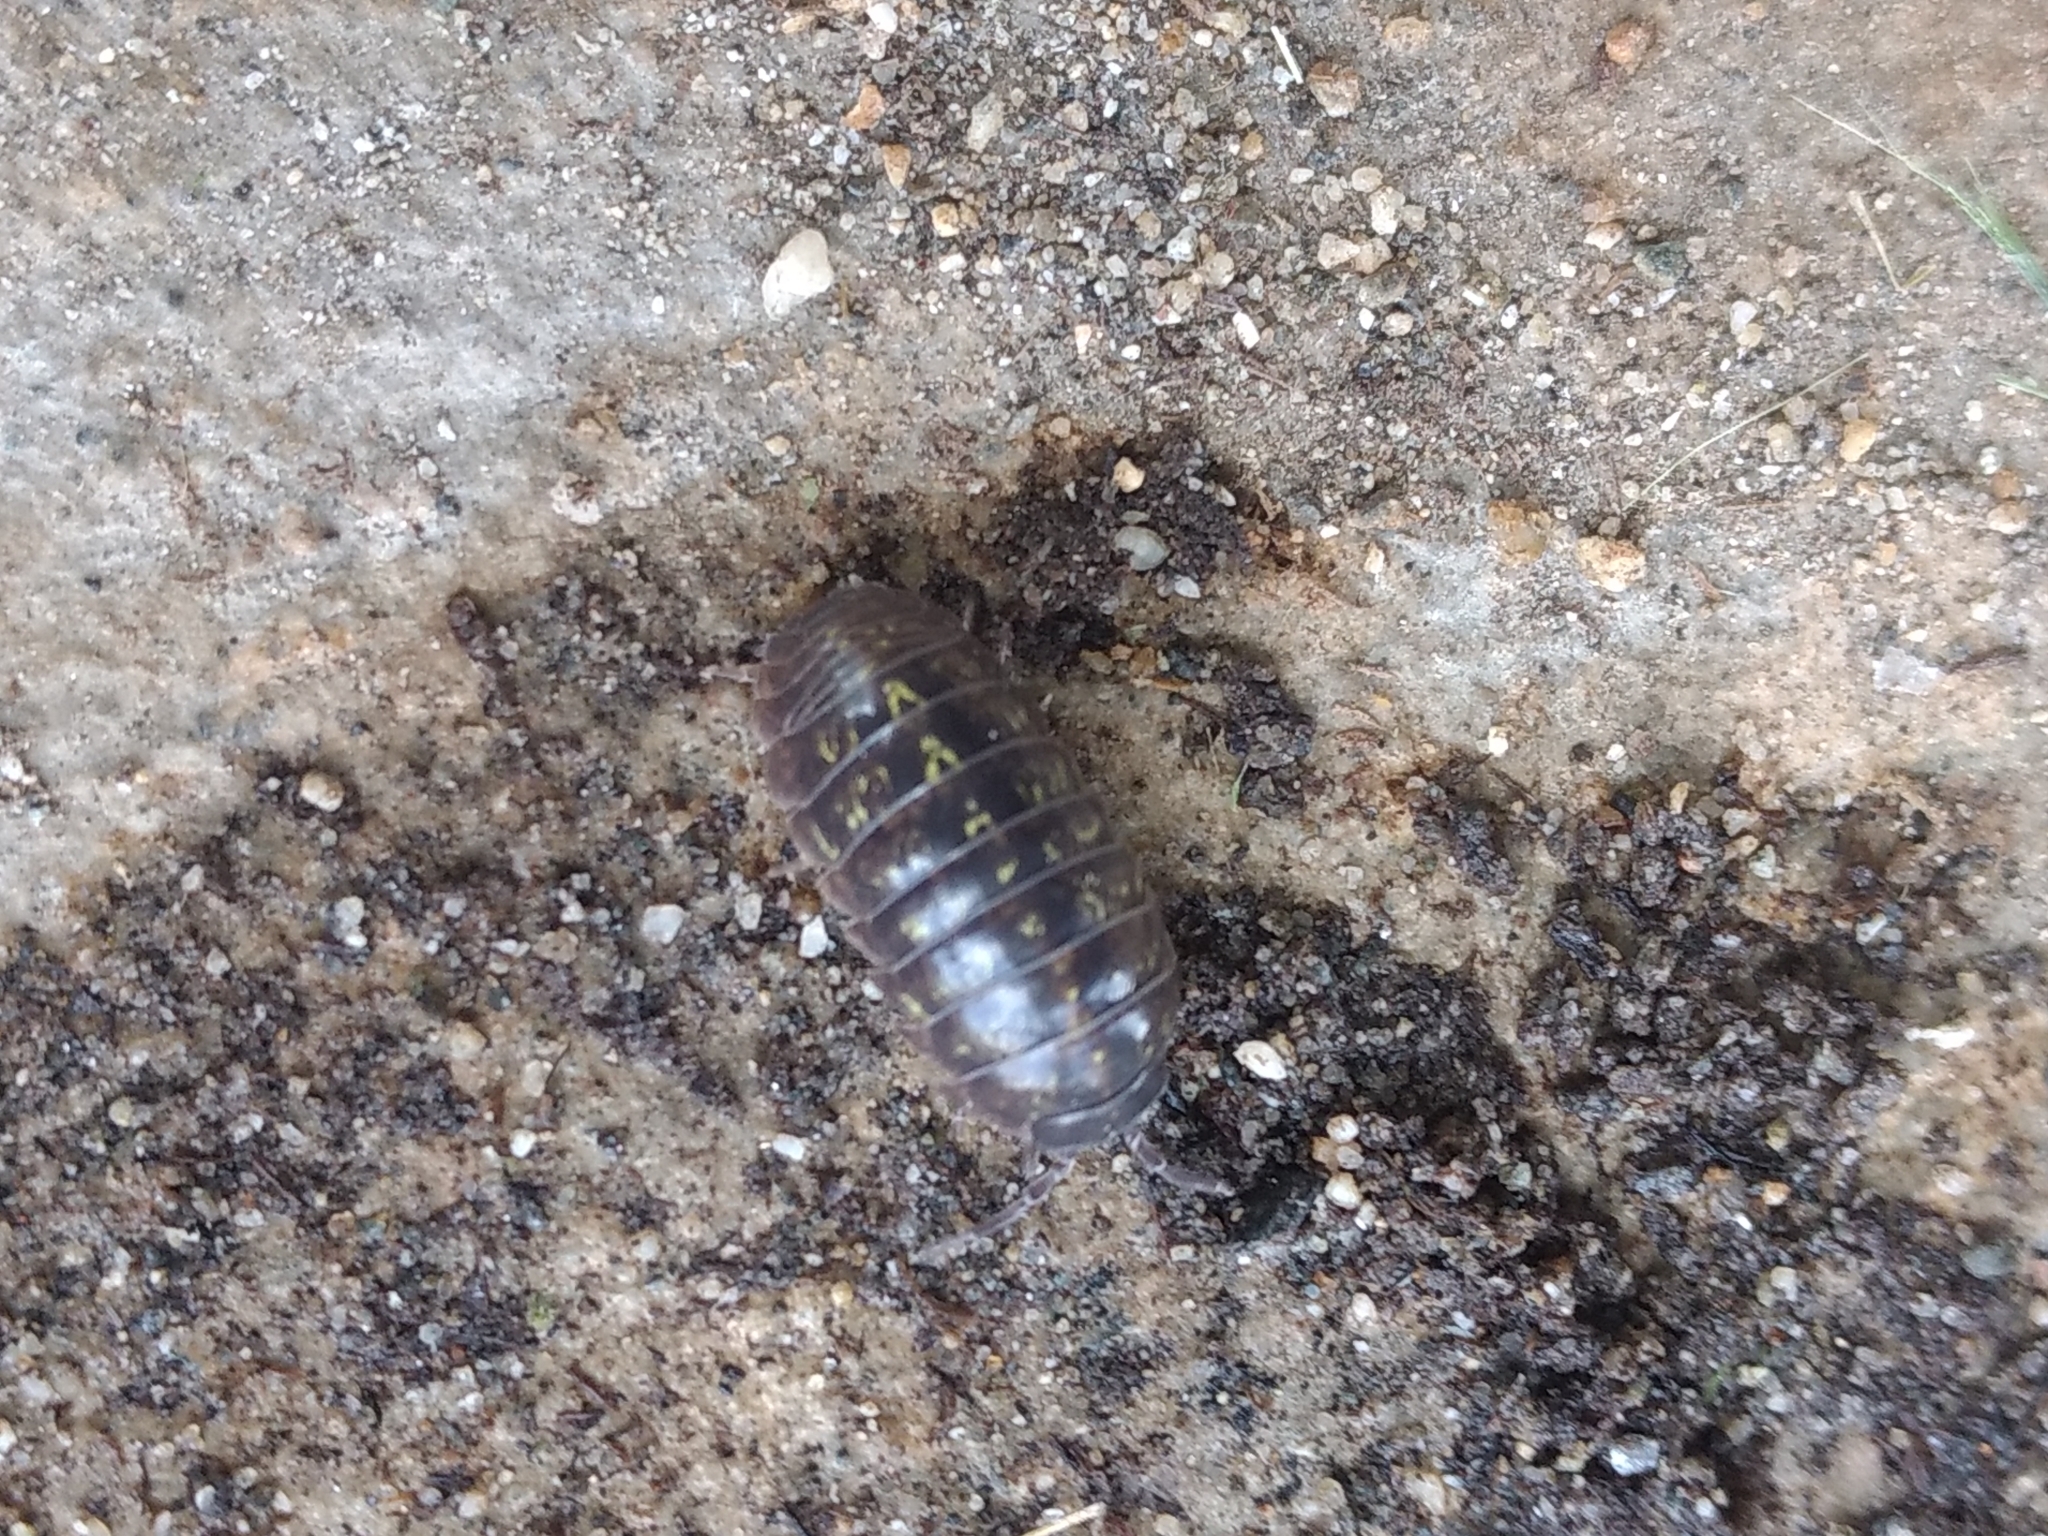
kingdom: Animalia
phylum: Arthropoda
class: Malacostraca
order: Isopoda
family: Armadillidiidae
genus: Armadillidium
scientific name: Armadillidium vulgare
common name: Common pill woodlouse
